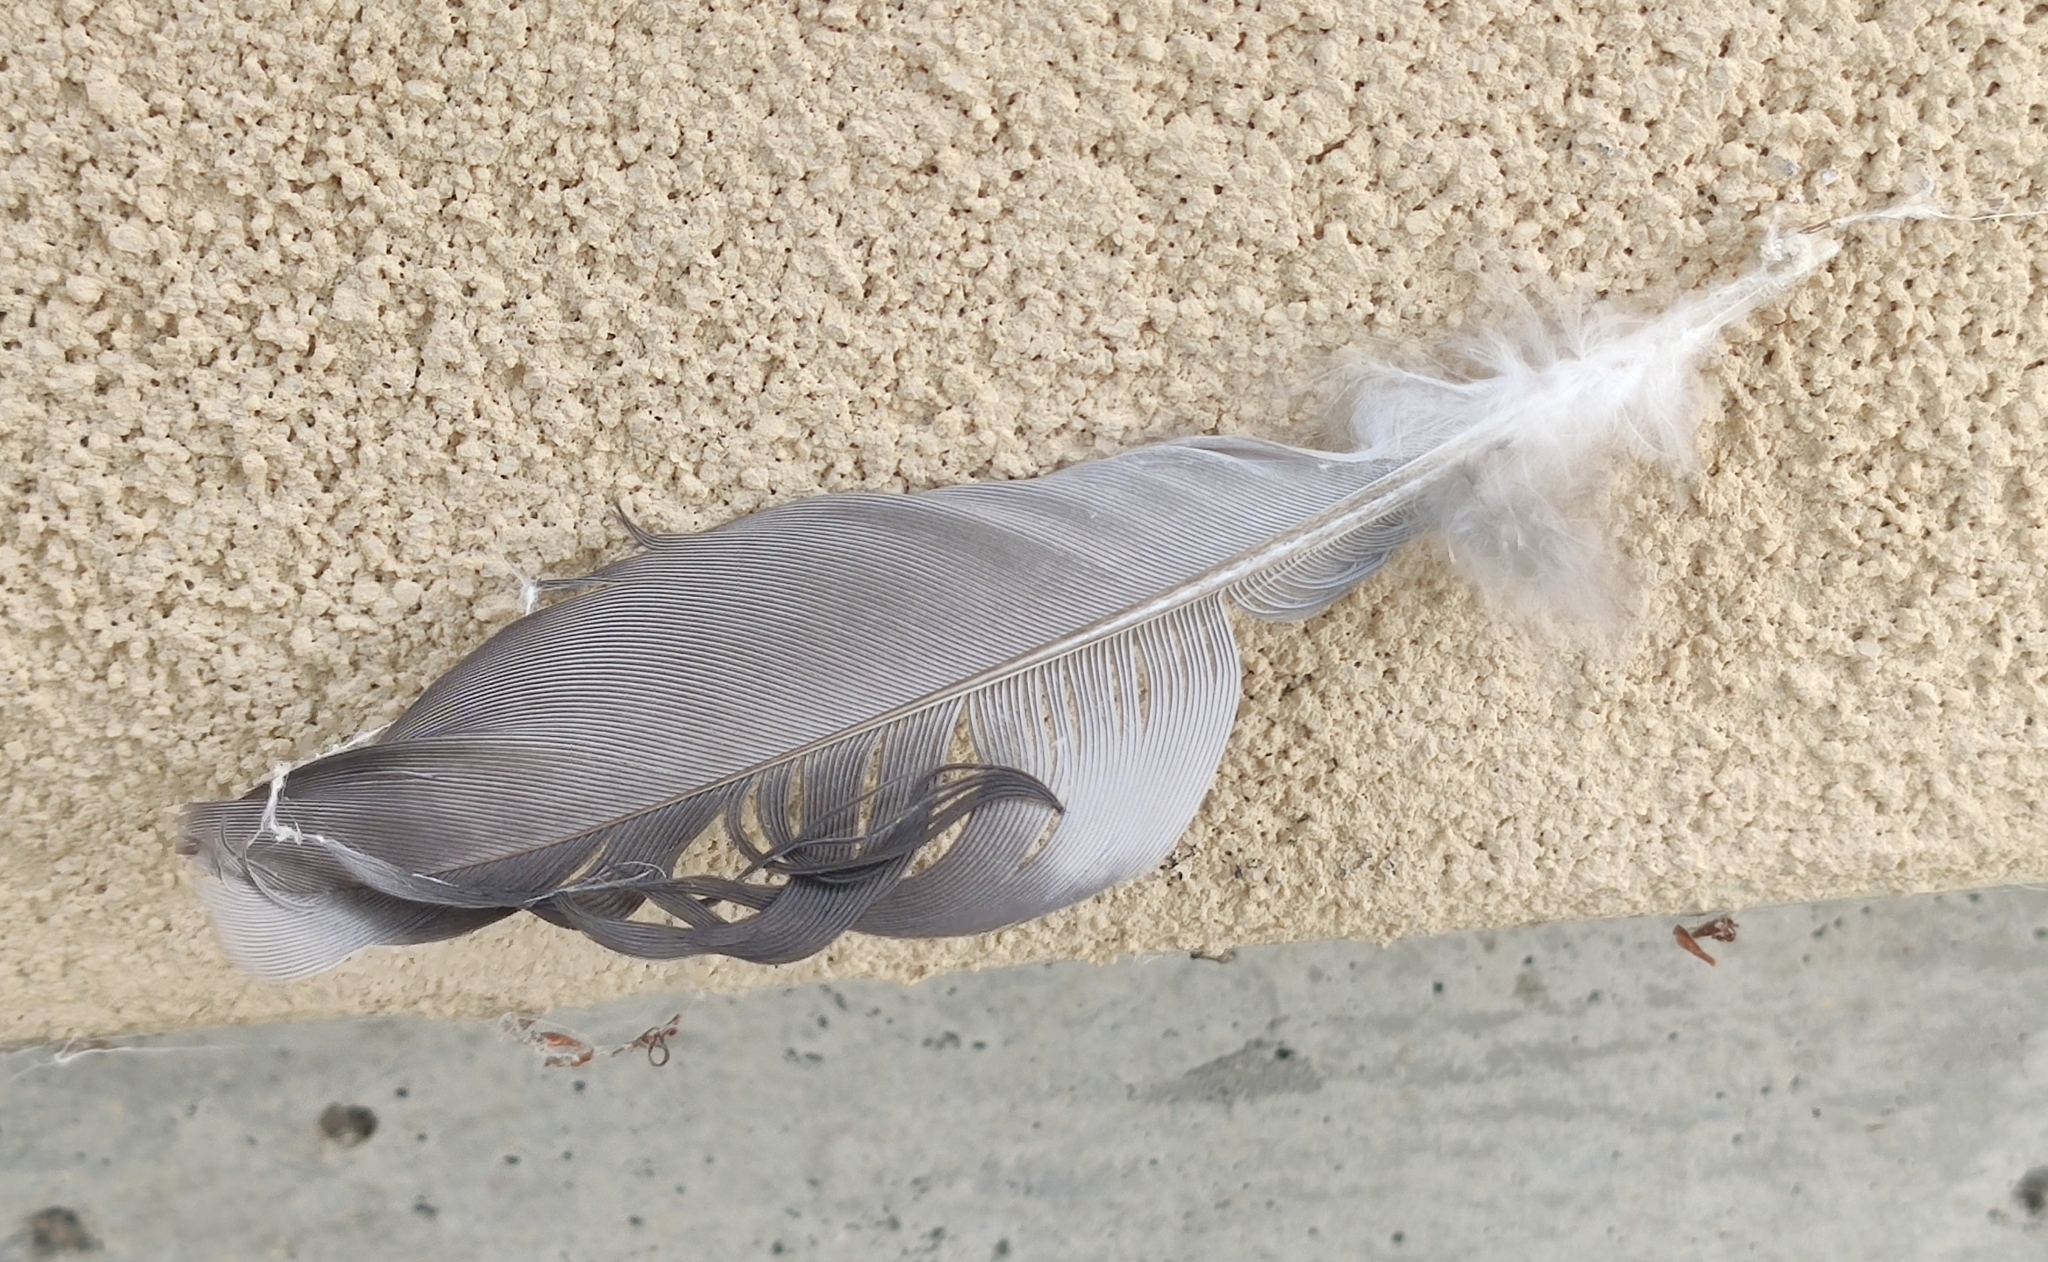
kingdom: Animalia
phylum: Chordata
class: Aves
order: Columbiformes
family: Columbidae
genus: Columba
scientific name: Columba livia
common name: Rock pigeon
